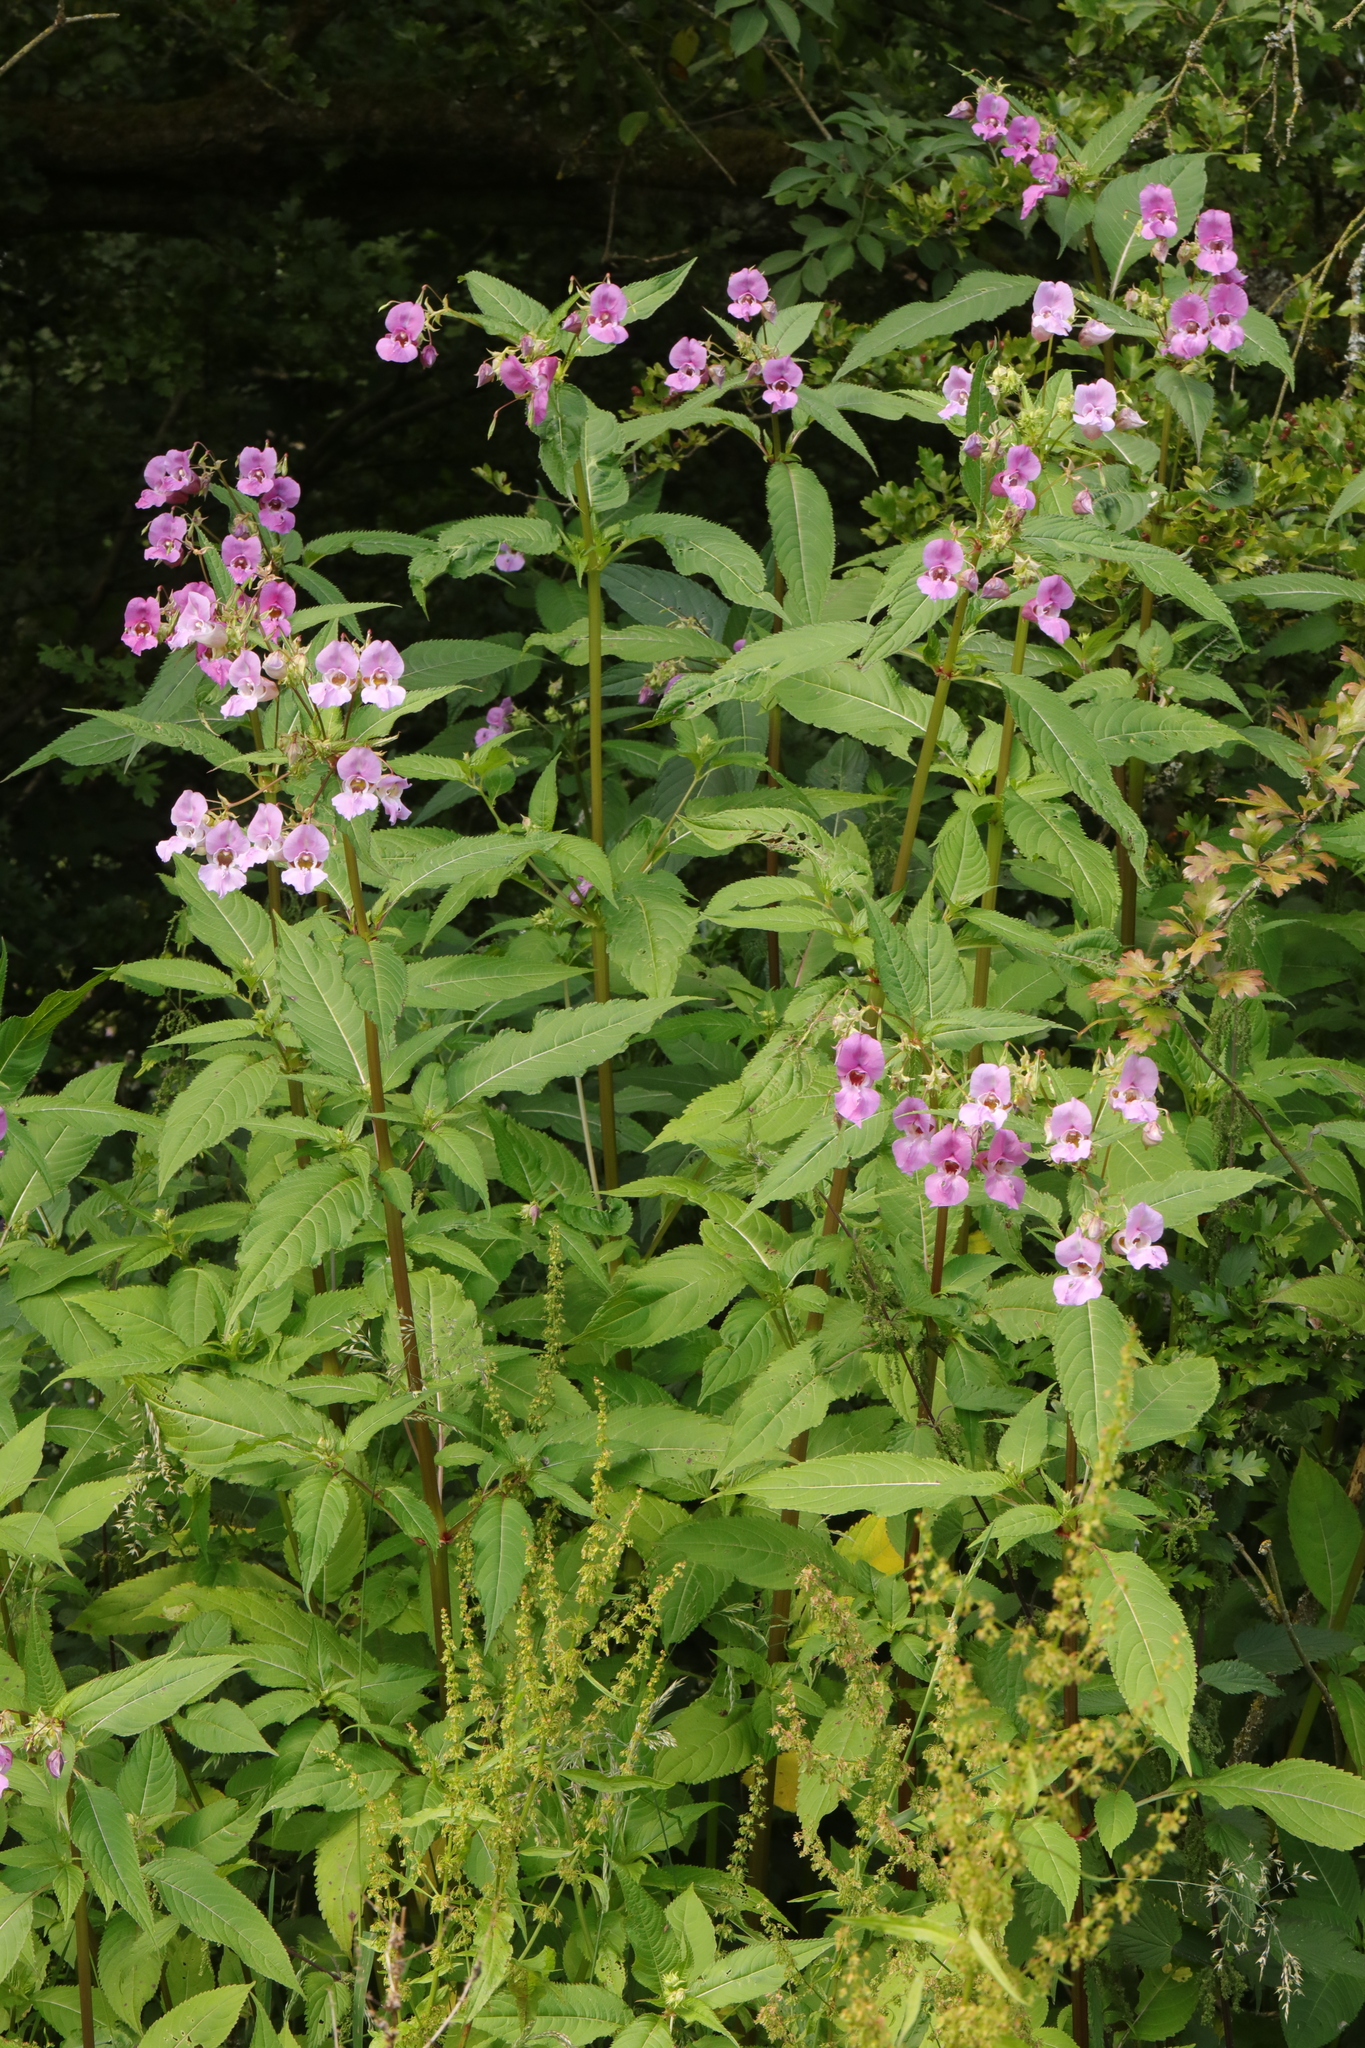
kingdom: Plantae
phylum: Tracheophyta
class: Magnoliopsida
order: Ericales
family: Balsaminaceae
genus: Impatiens
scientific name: Impatiens glandulifera
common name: Himalayan balsam
